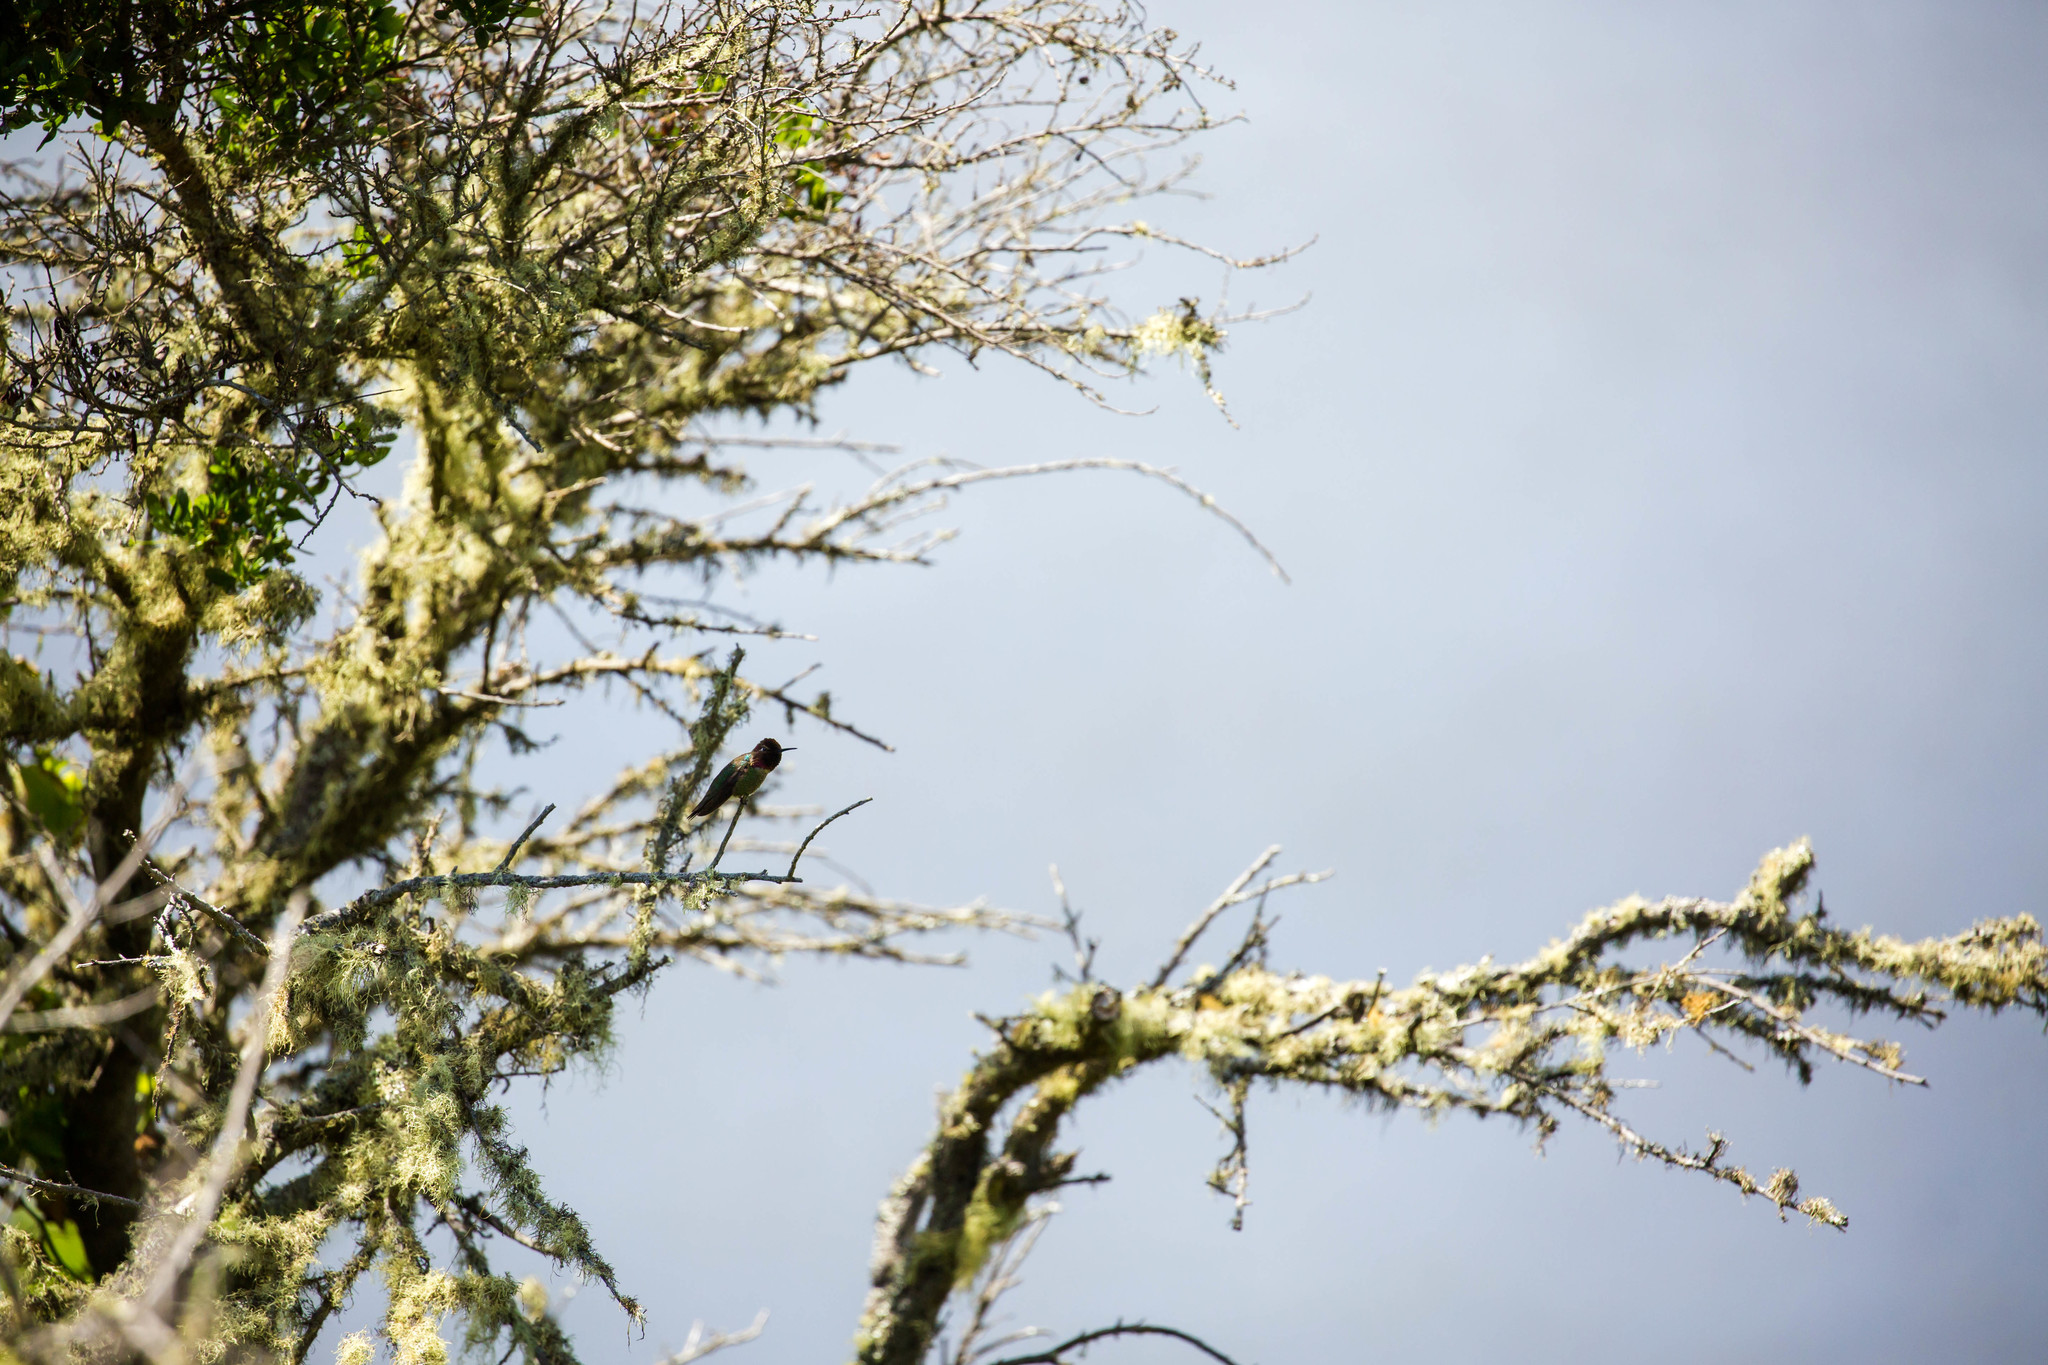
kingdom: Animalia
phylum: Chordata
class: Aves
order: Apodiformes
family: Trochilidae
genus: Calypte
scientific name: Calypte anna
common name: Anna's hummingbird
